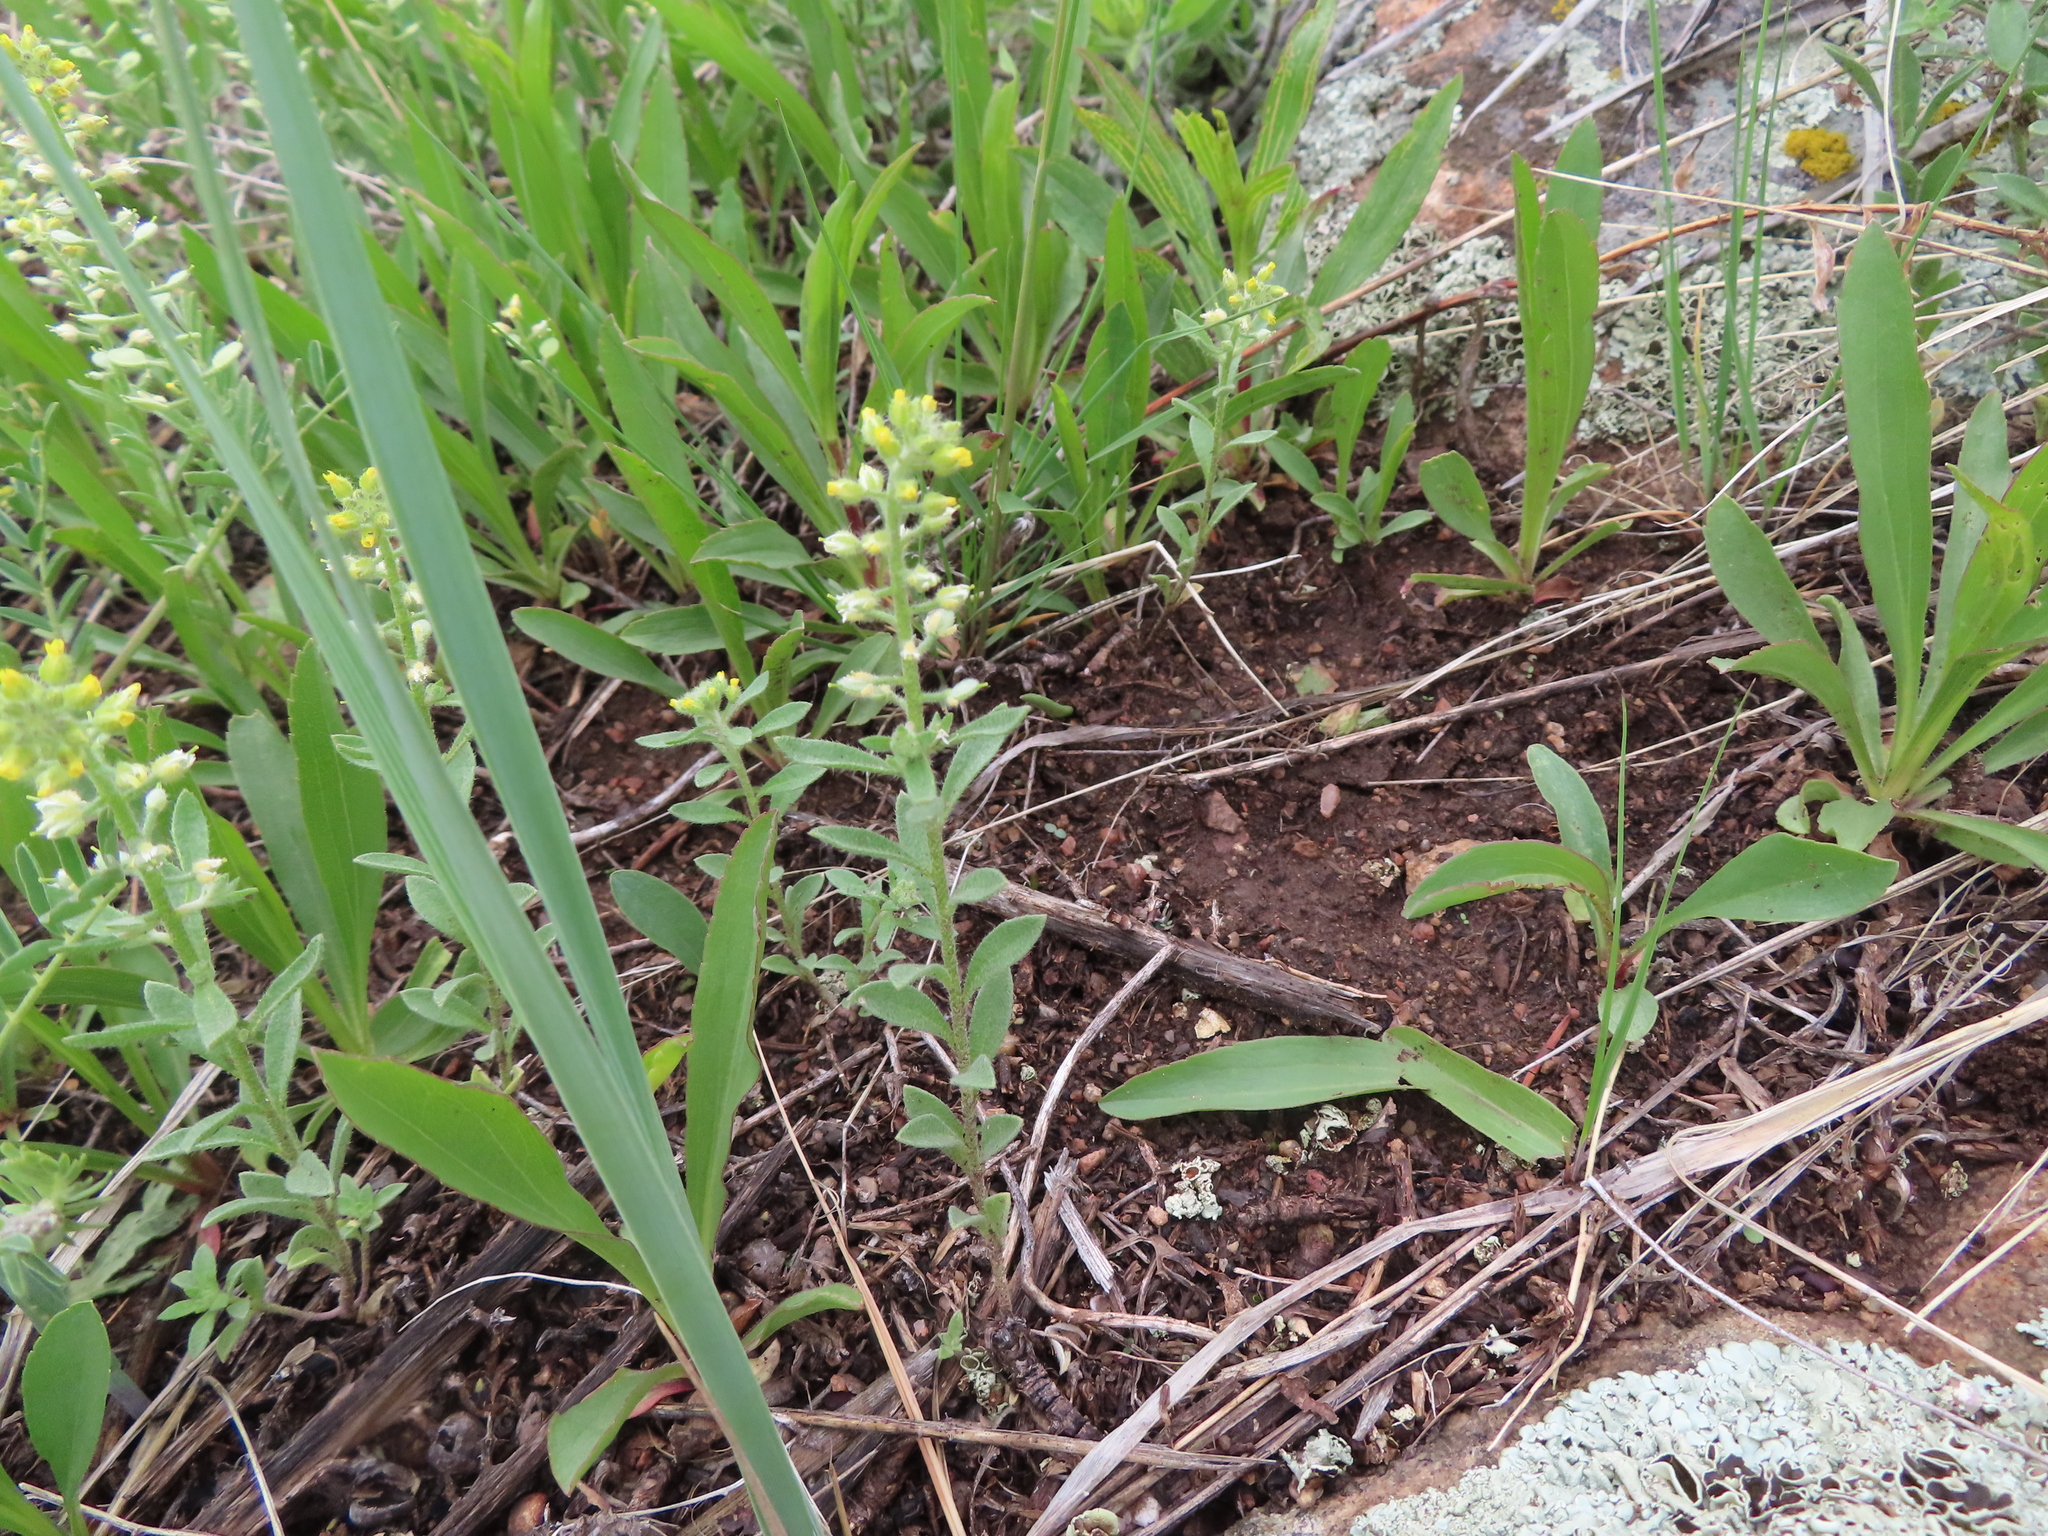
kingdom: Plantae
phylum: Tracheophyta
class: Magnoliopsida
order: Brassicales
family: Brassicaceae
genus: Alyssum
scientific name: Alyssum simplex
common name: Alyssum
